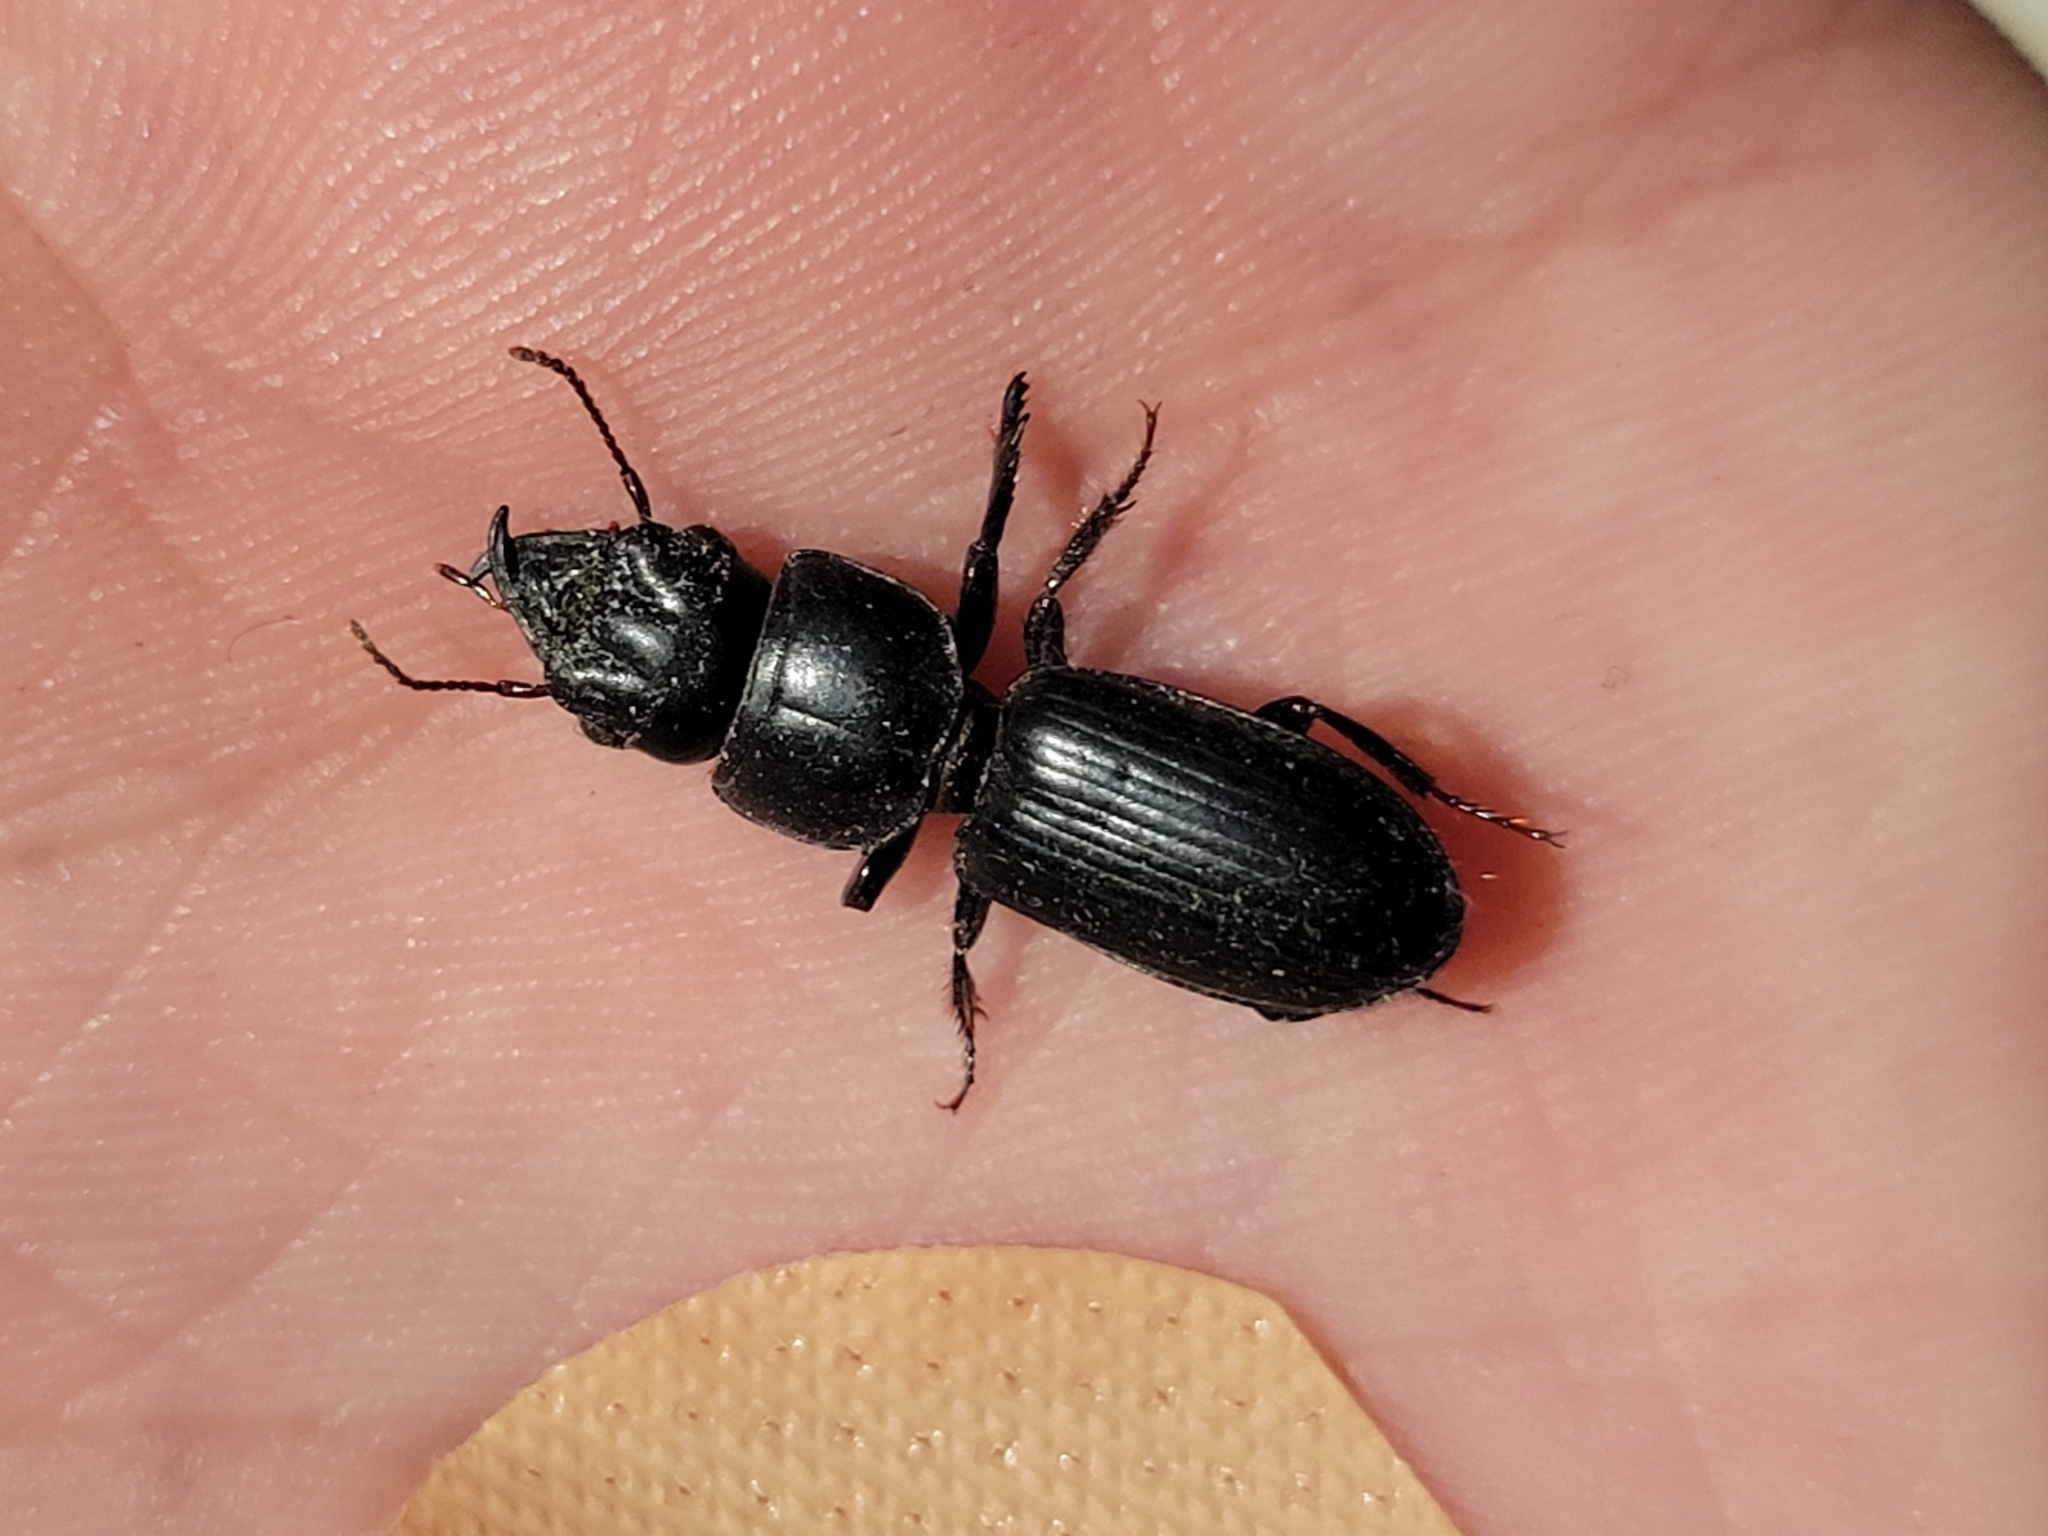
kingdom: Animalia
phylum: Arthropoda
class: Insecta
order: Coleoptera
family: Carabidae
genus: Scarites
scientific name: Scarites subterraneus
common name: Big-headed ground beetle
